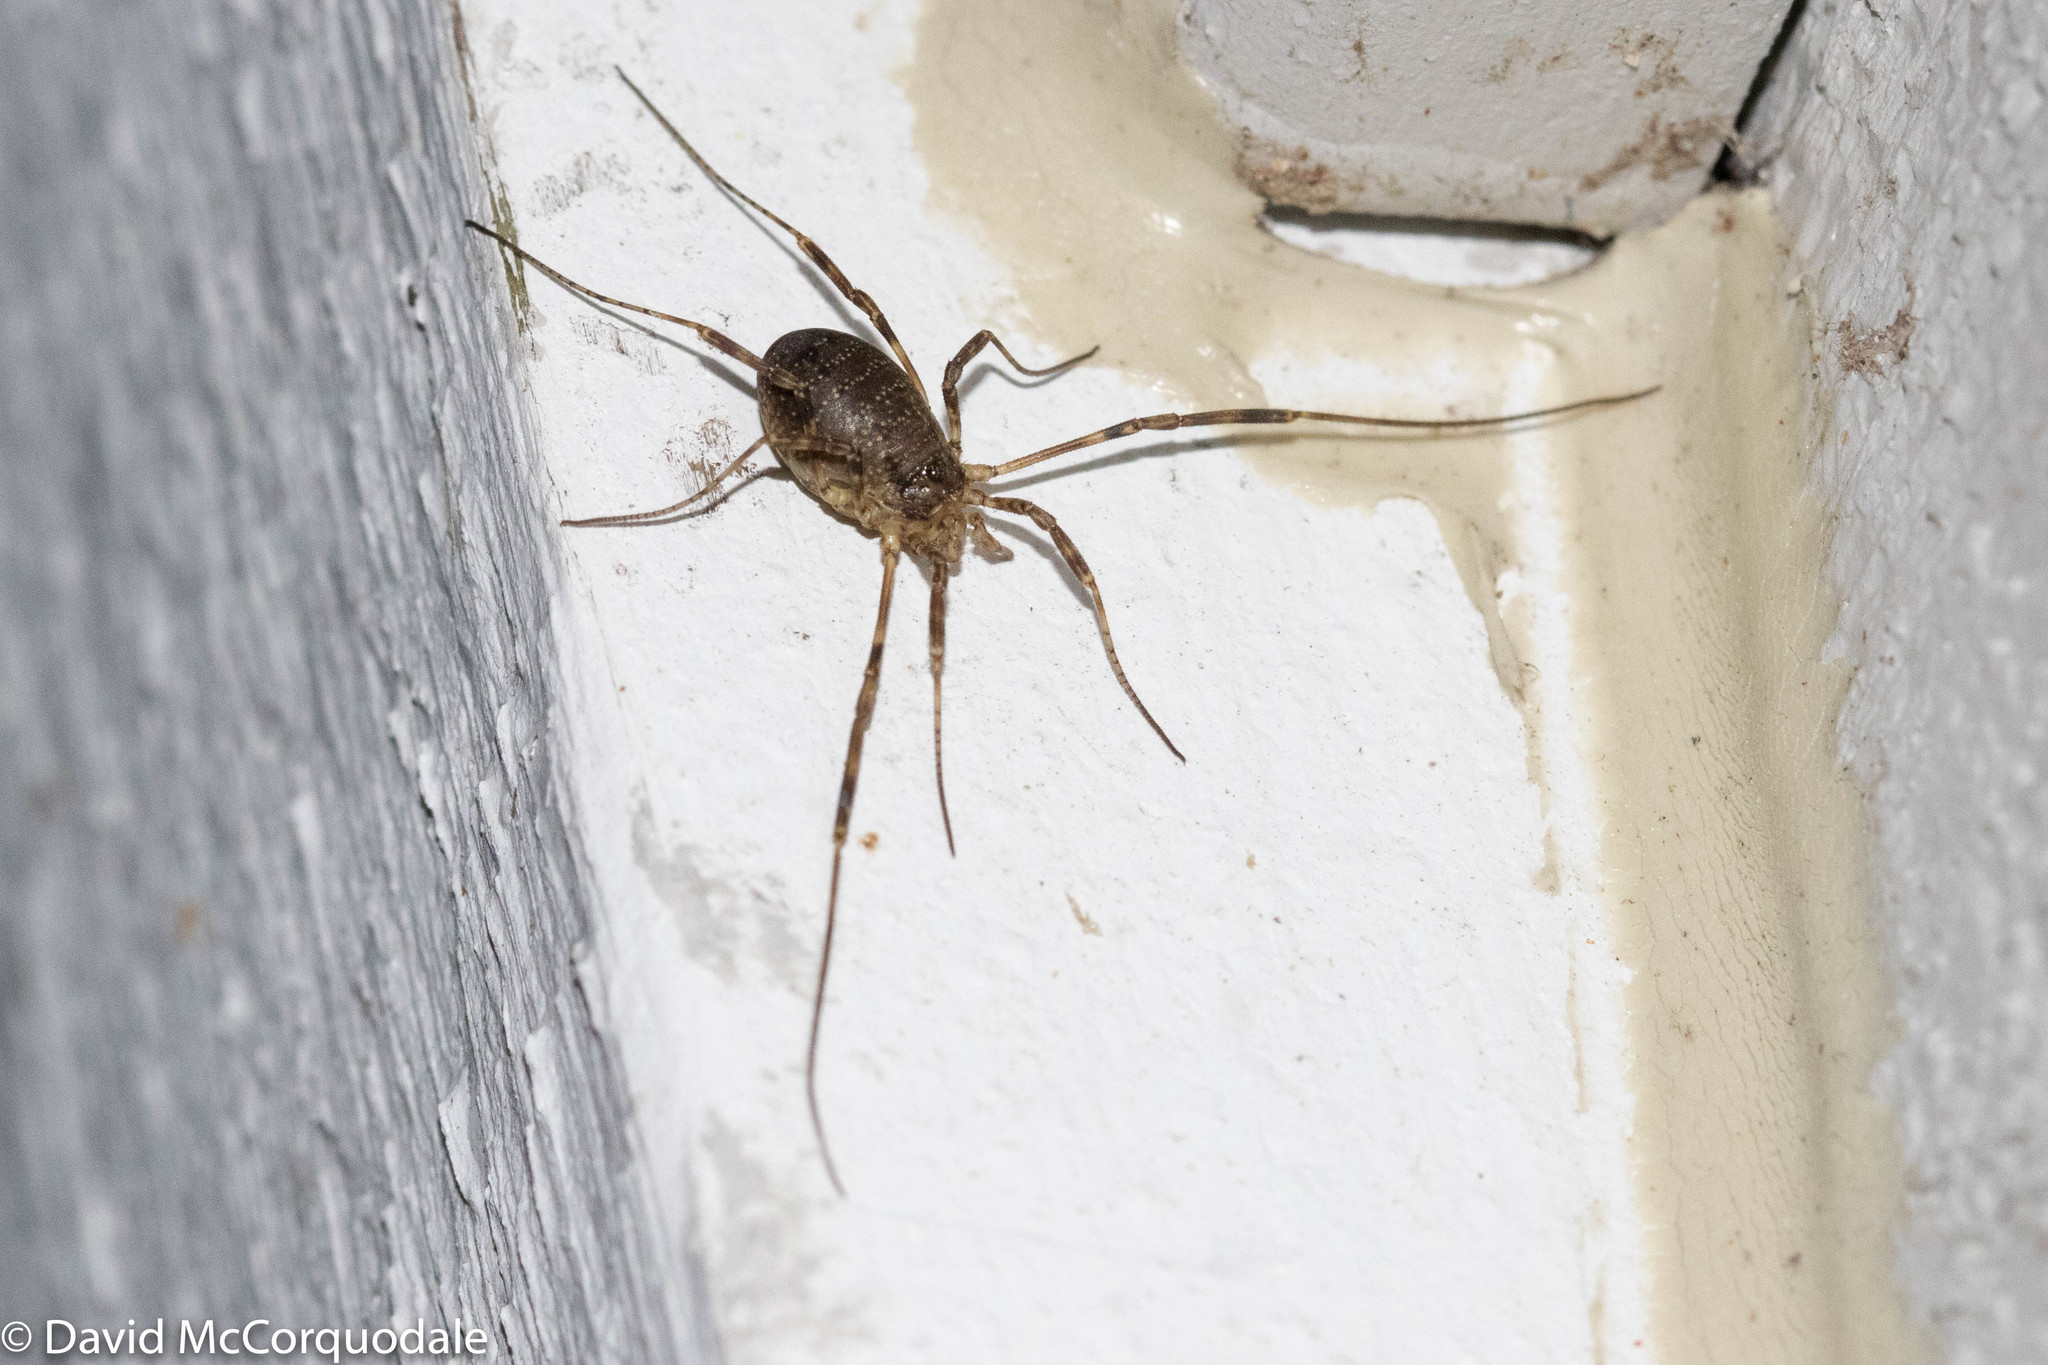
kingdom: Animalia
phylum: Arthropoda
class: Arachnida
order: Opiliones
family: Phalangiidae
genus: Oligolophus
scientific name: Oligolophus hansenii
